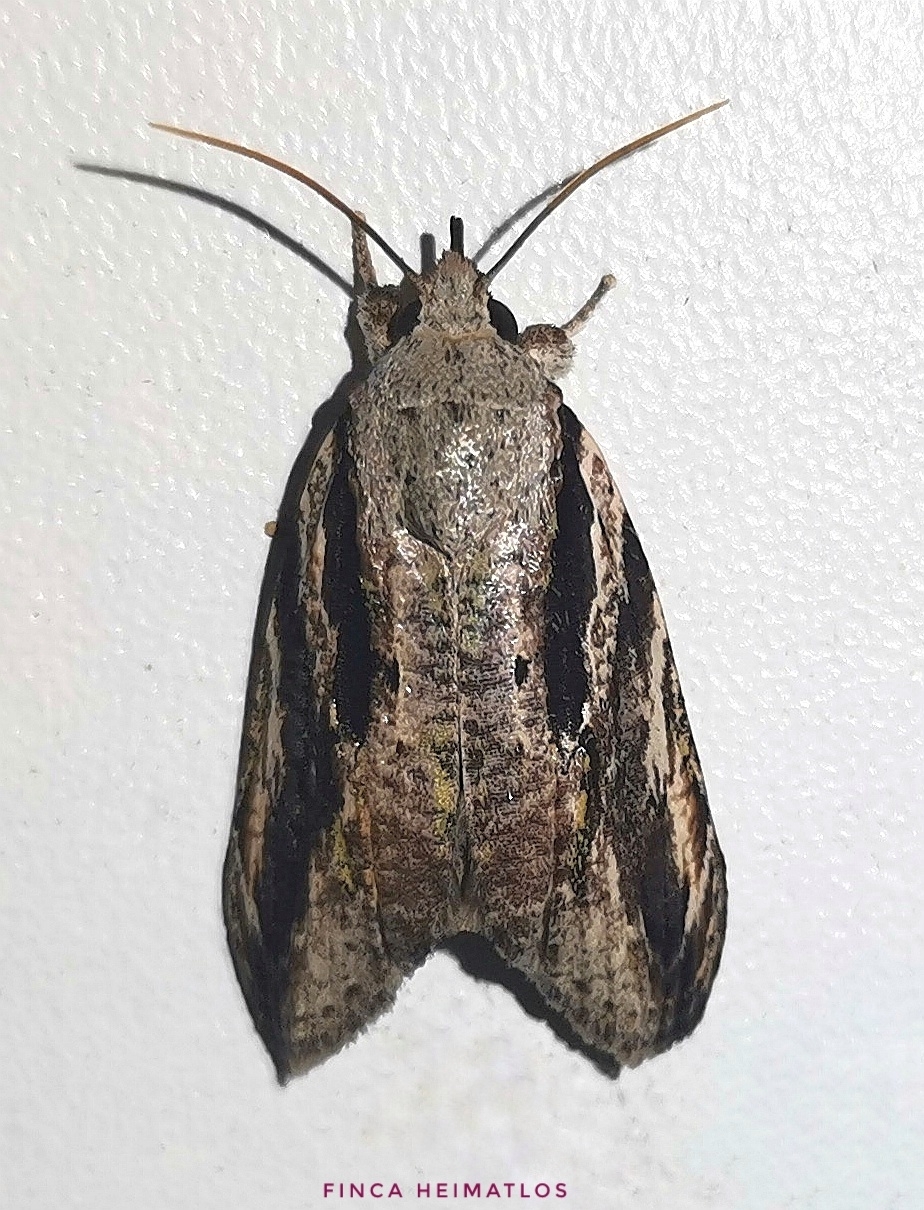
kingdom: Animalia
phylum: Arthropoda
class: Insecta
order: Lepidoptera
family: Nolidae
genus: Iscadia
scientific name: Iscadia argentea
